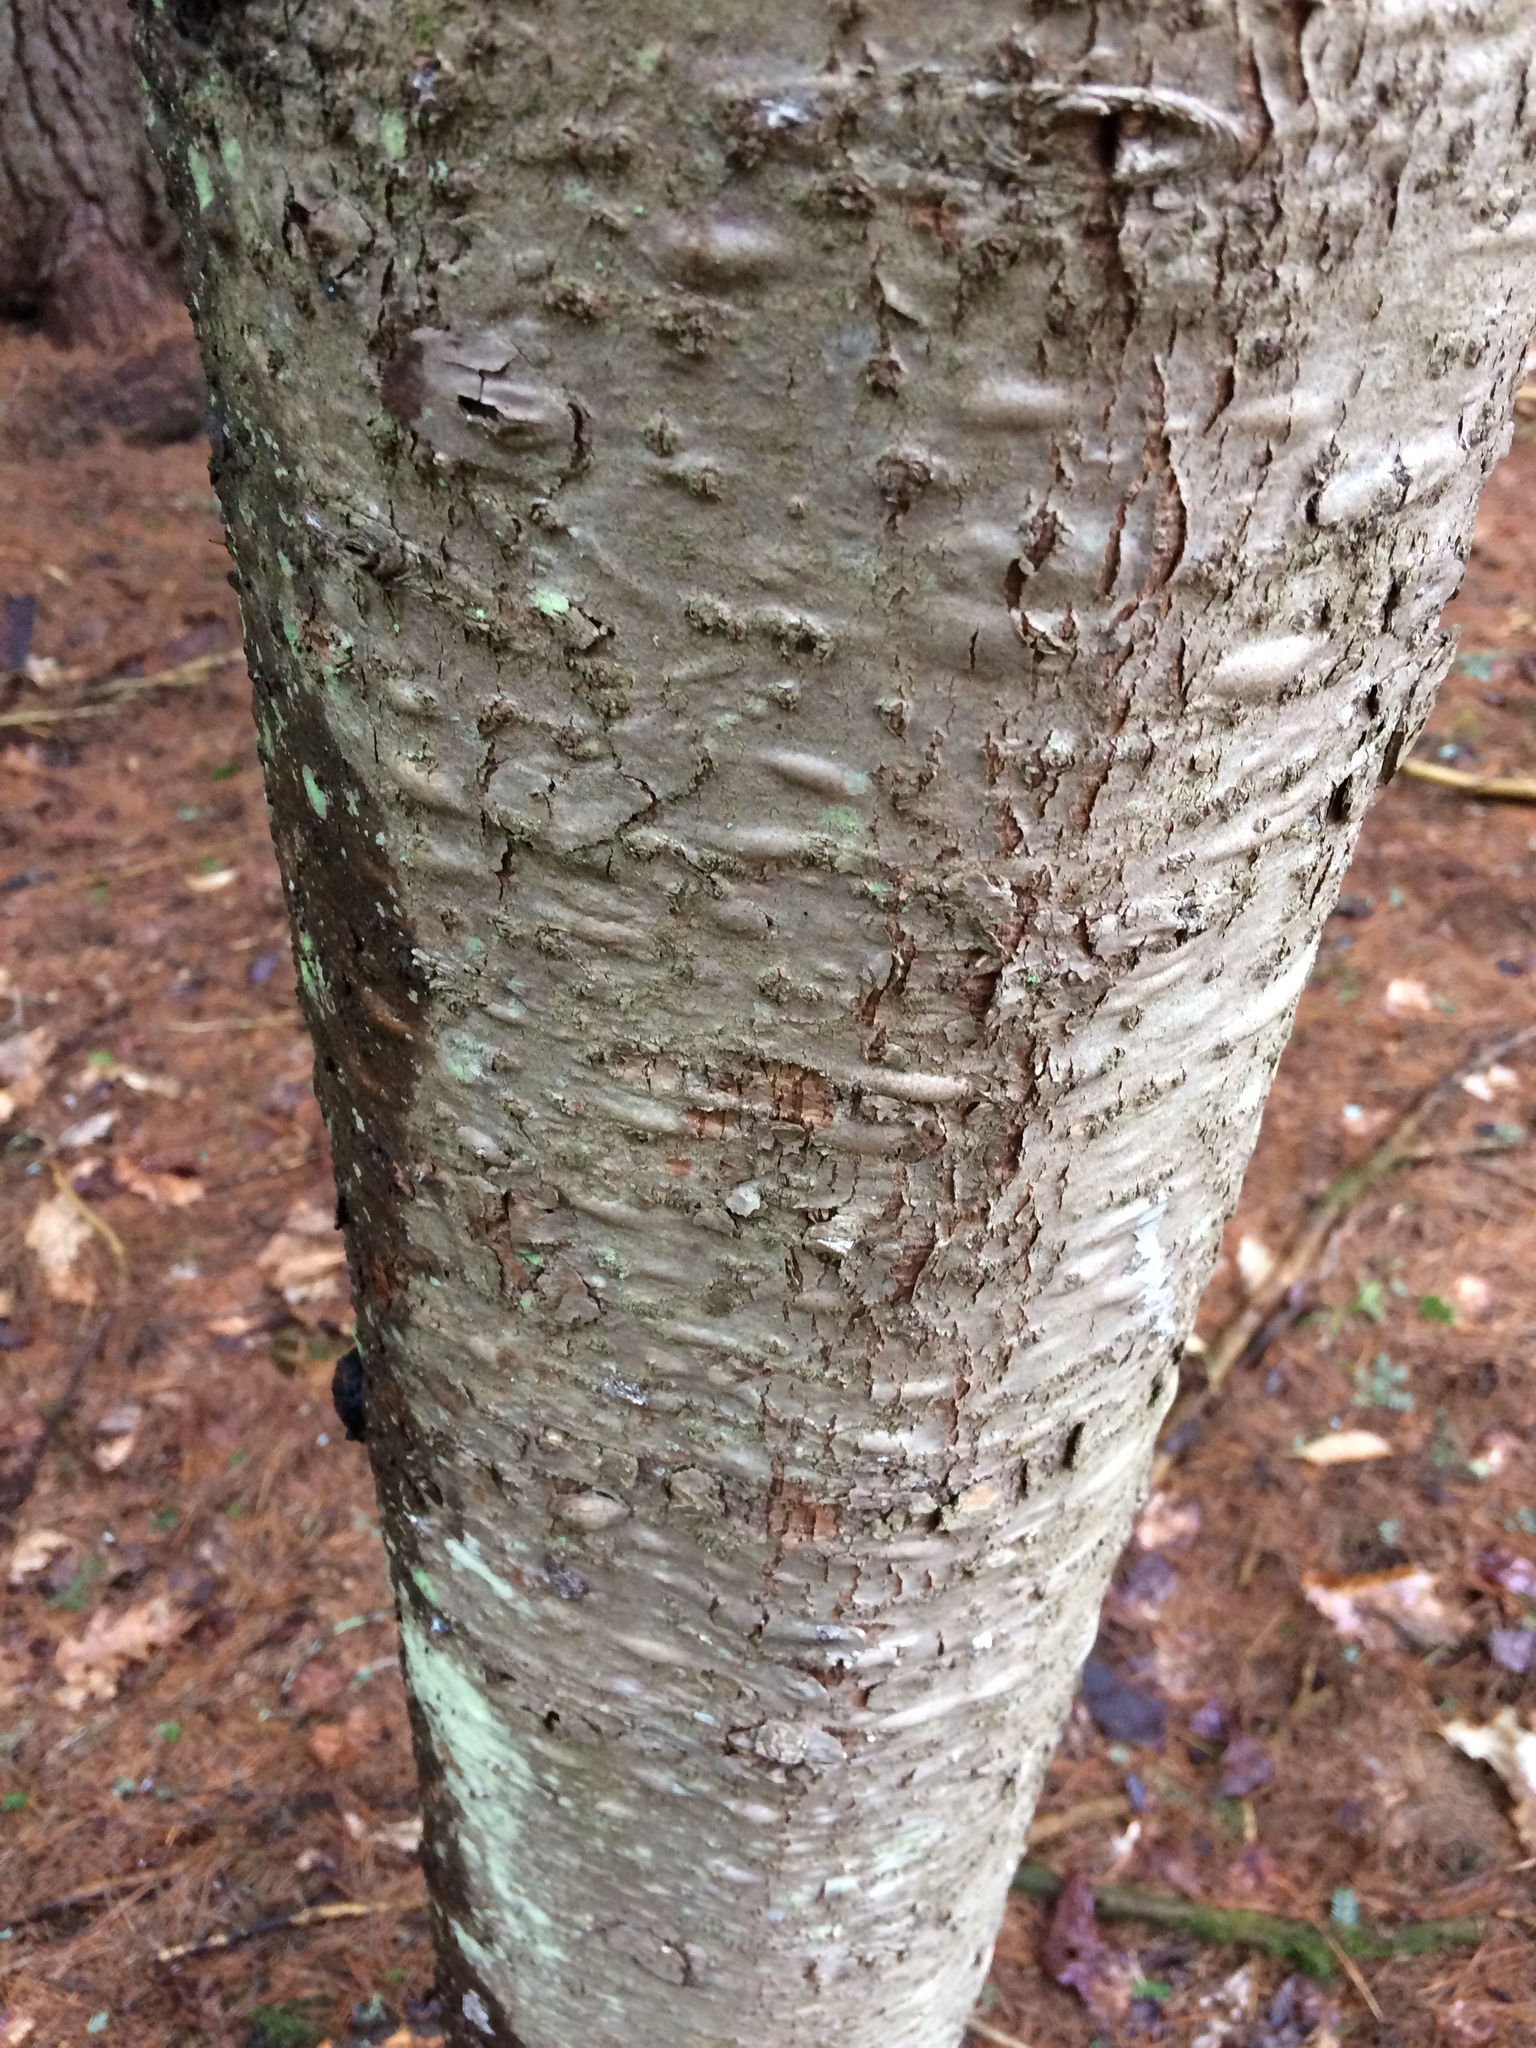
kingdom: Plantae
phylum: Tracheophyta
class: Pinopsida
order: Pinales
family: Pinaceae
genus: Abies
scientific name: Abies balsamea
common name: Balsam fir
